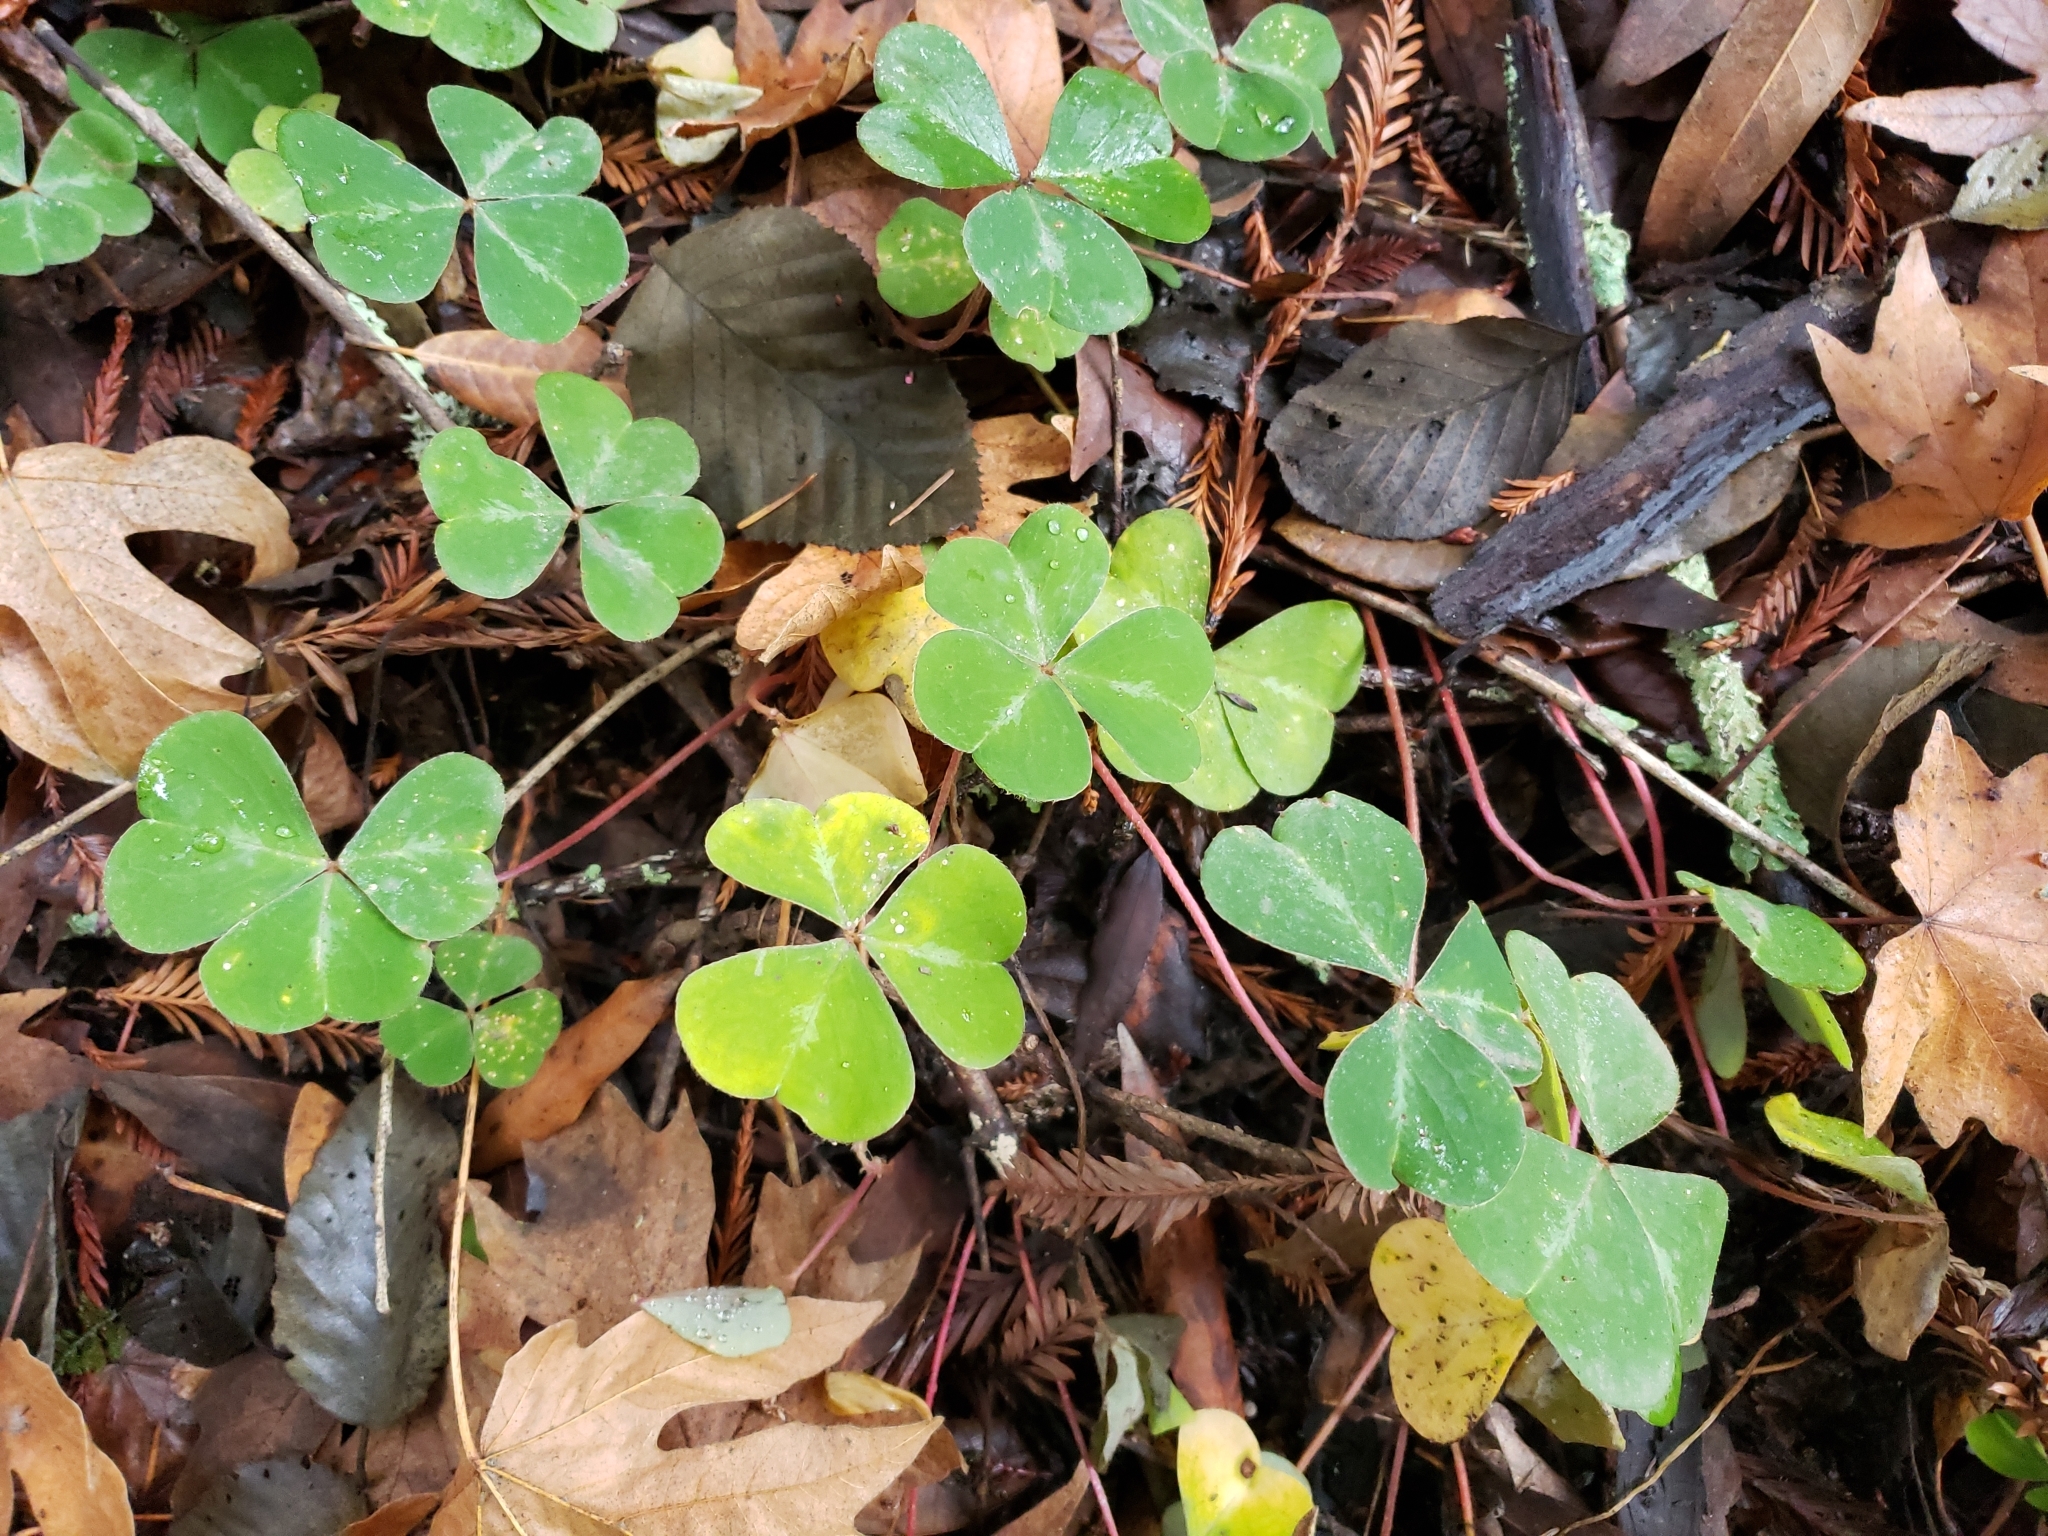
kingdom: Plantae
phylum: Tracheophyta
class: Magnoliopsida
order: Oxalidales
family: Oxalidaceae
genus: Oxalis
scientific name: Oxalis oregana
